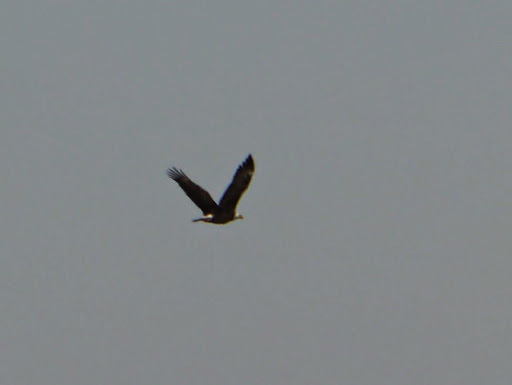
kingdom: Animalia
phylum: Chordata
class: Aves
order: Accipitriformes
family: Accipitridae
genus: Haliaeetus
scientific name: Haliaeetus leucocephalus
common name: Bald eagle
